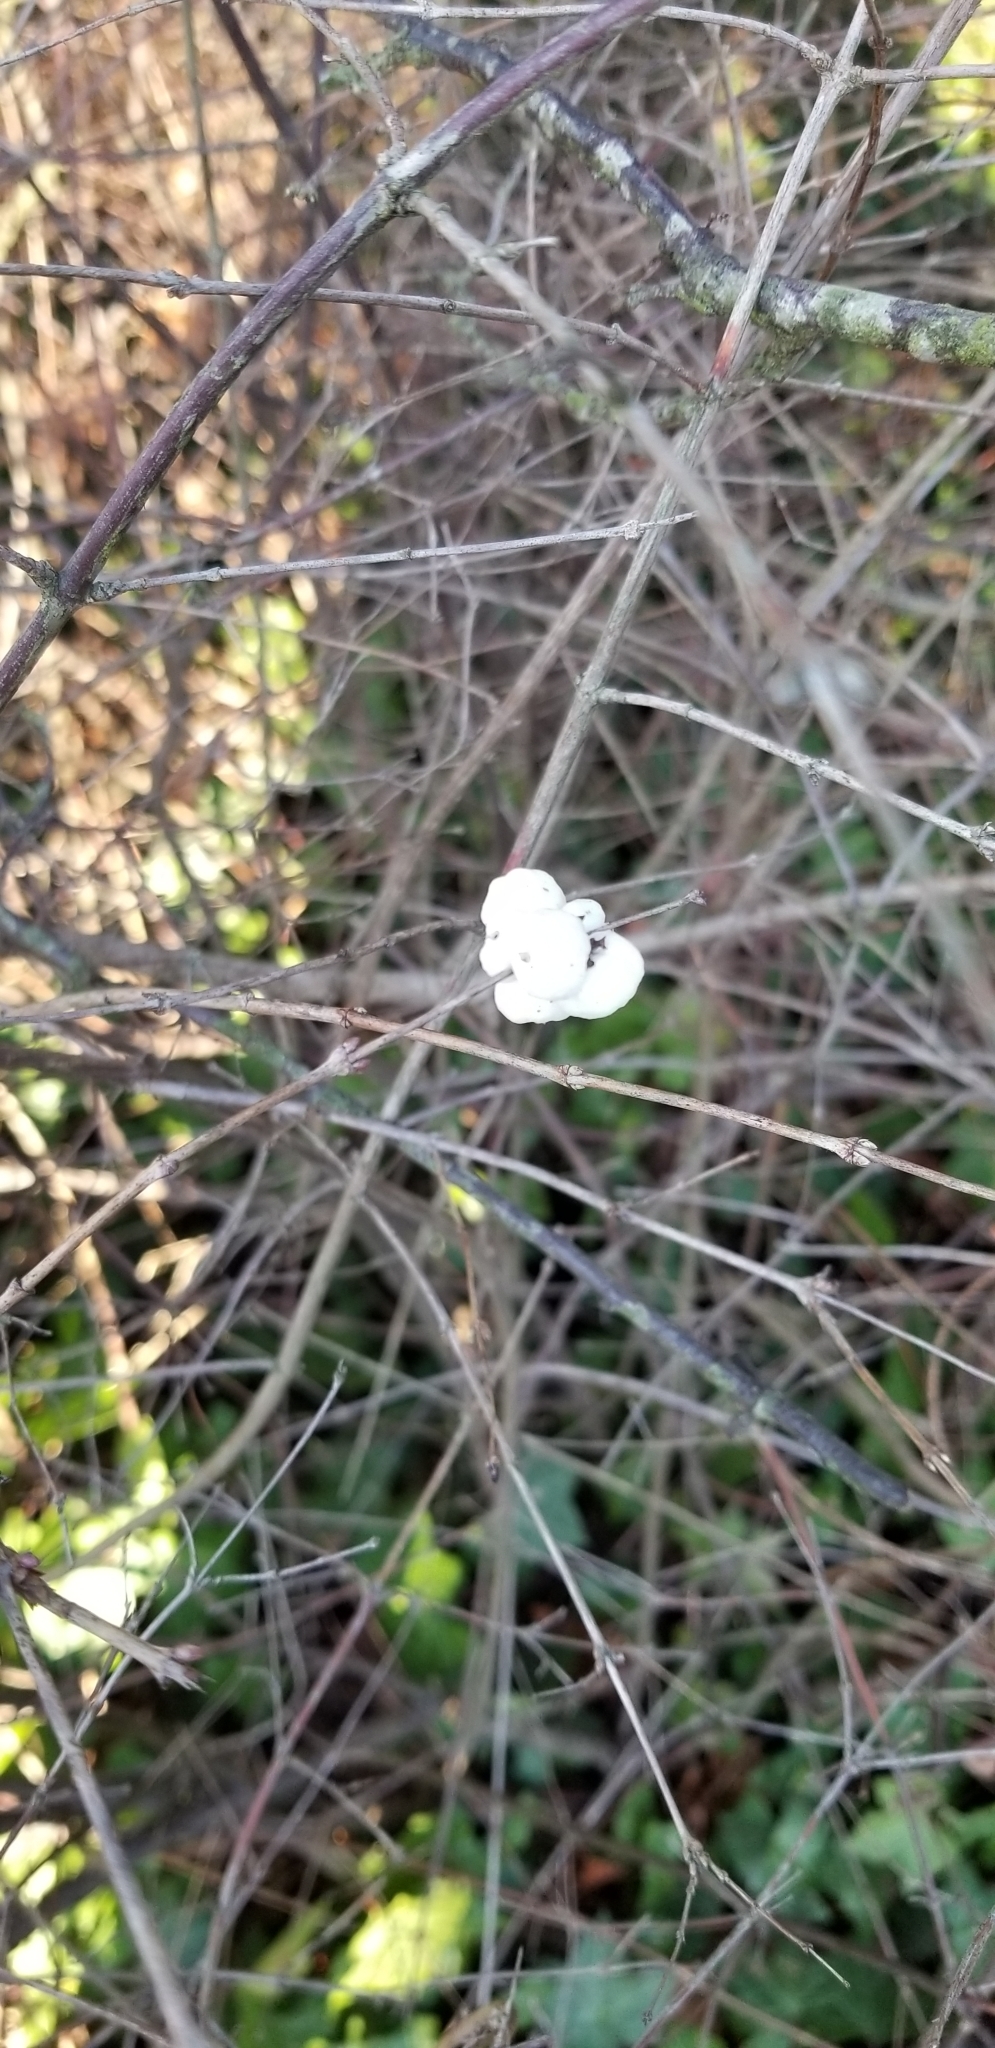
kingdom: Plantae
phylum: Tracheophyta
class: Magnoliopsida
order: Dipsacales
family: Caprifoliaceae
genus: Symphoricarpos
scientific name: Symphoricarpos albus
